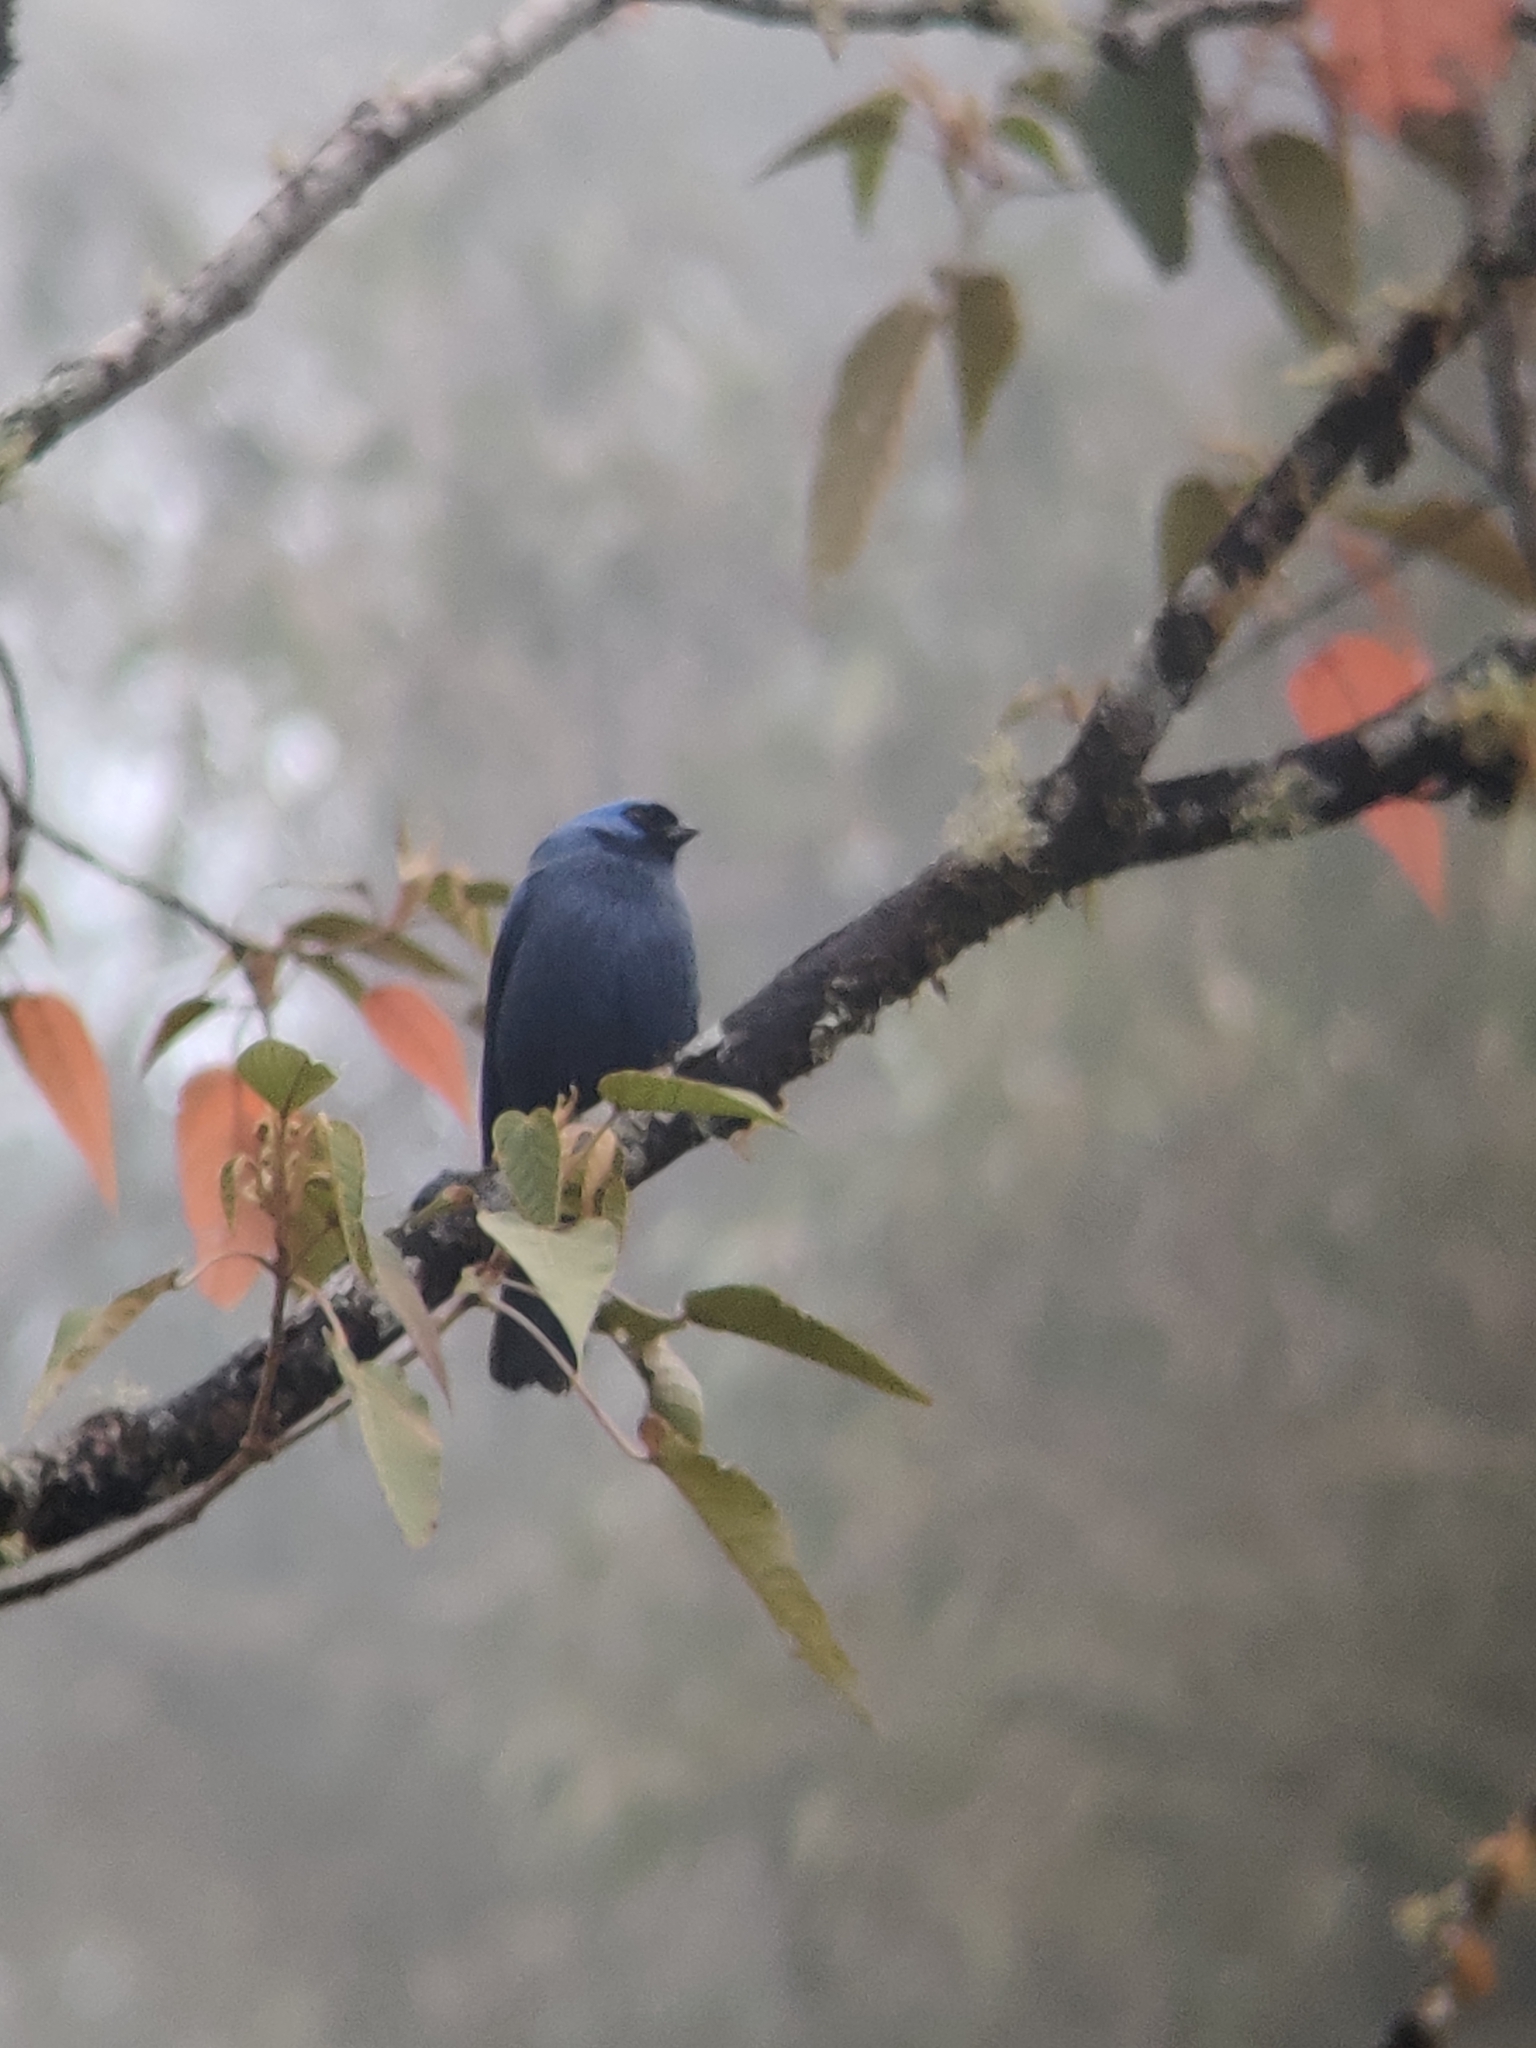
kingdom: Animalia
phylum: Chordata
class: Aves
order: Passeriformes
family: Thraupidae
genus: Stephanophorus
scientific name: Stephanophorus diadematus
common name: Diademed tanager
